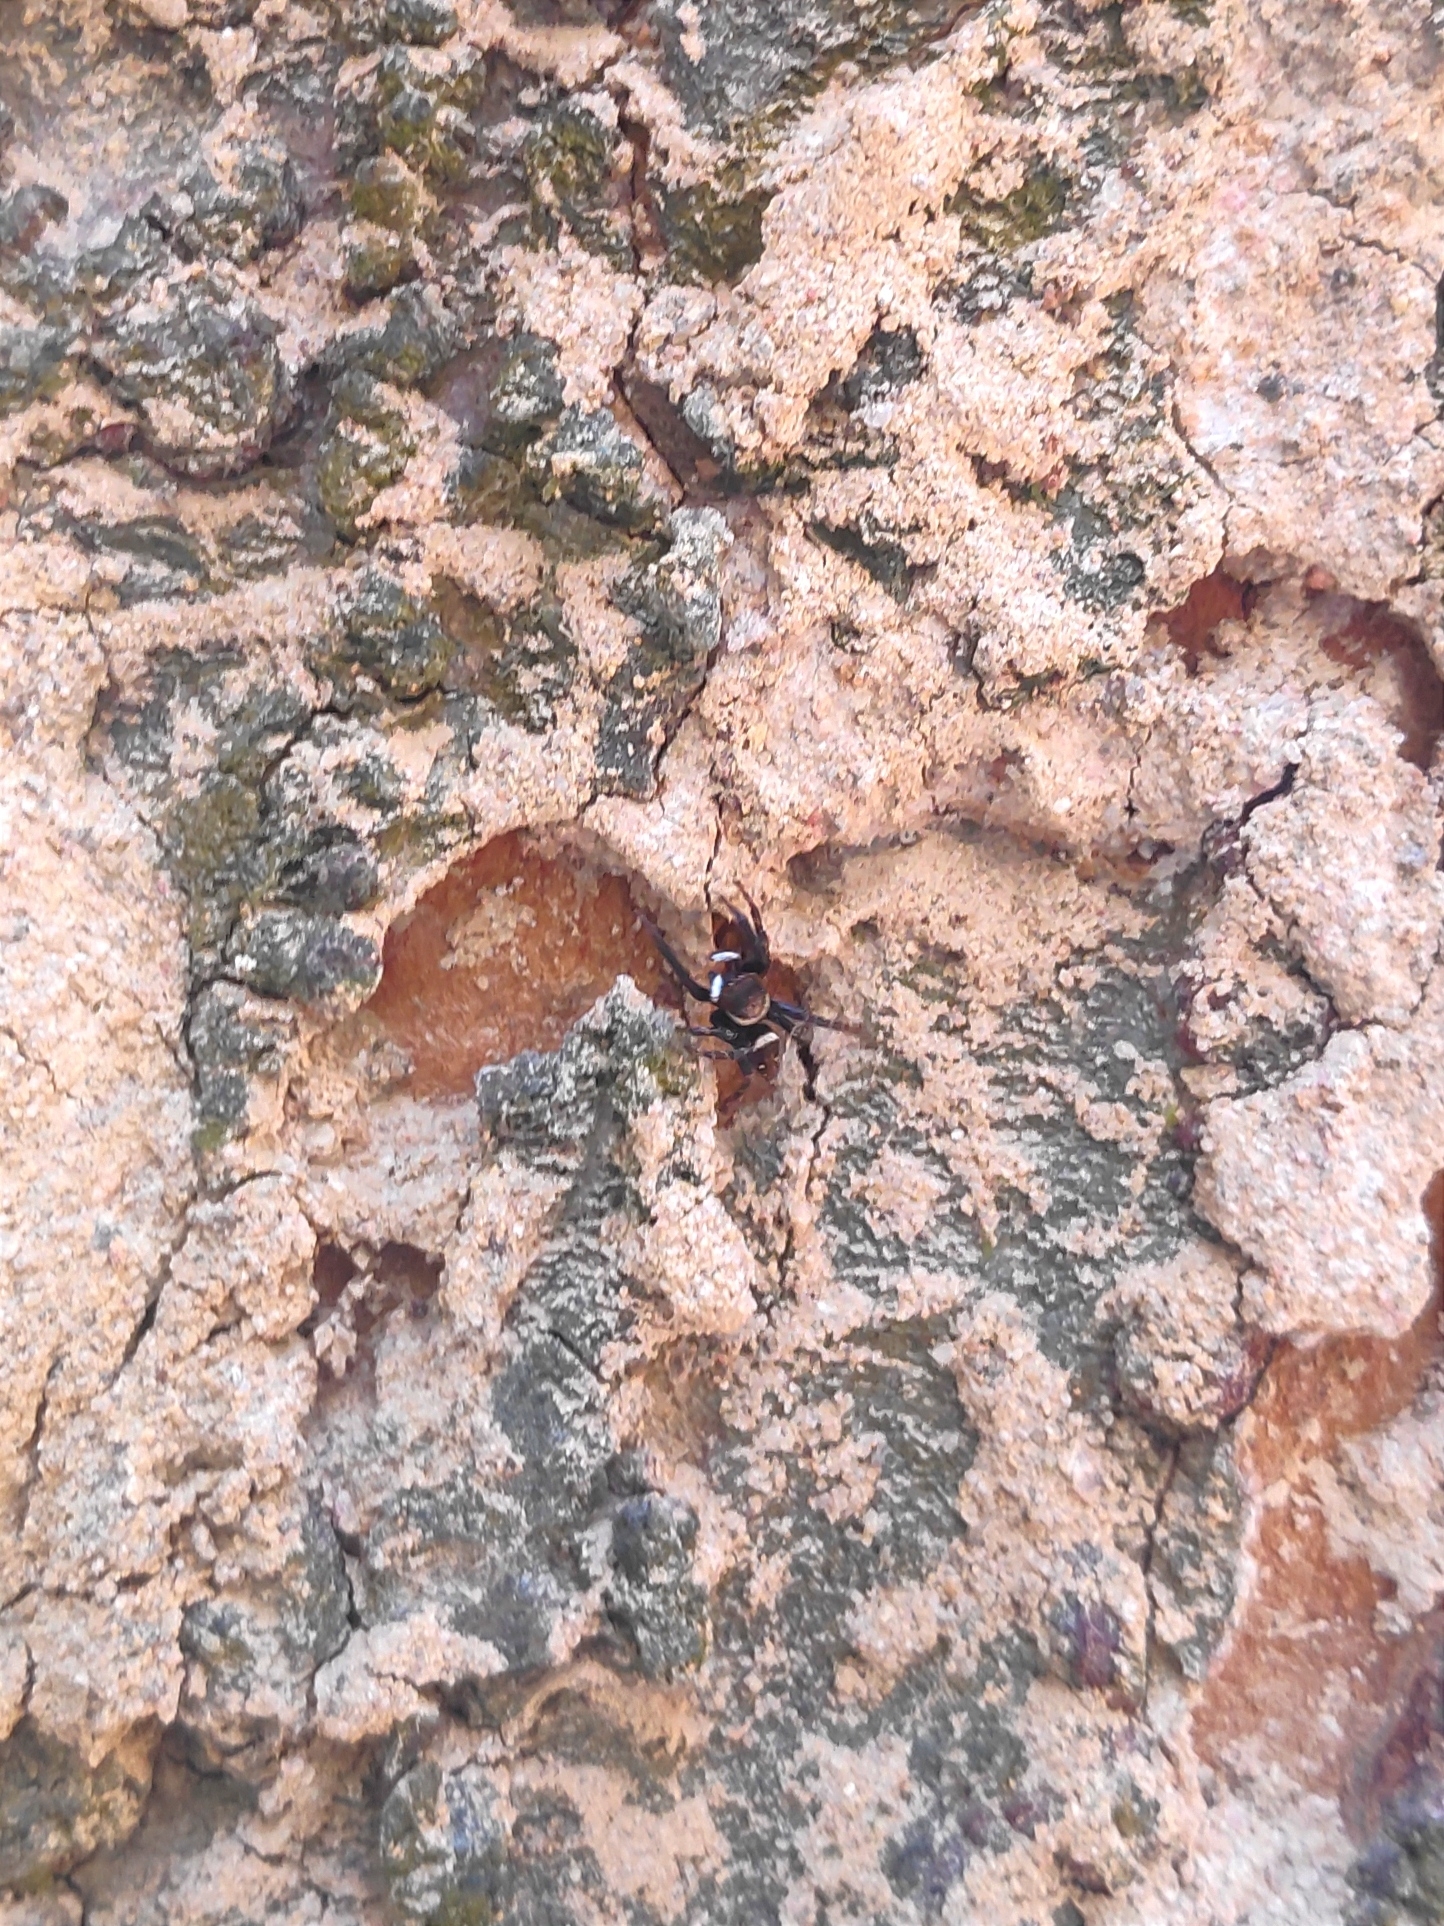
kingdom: Animalia
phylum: Arthropoda
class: Arachnida
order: Araneae
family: Salticidae
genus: Hasarius
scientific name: Hasarius adansoni
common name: Jumping spider
